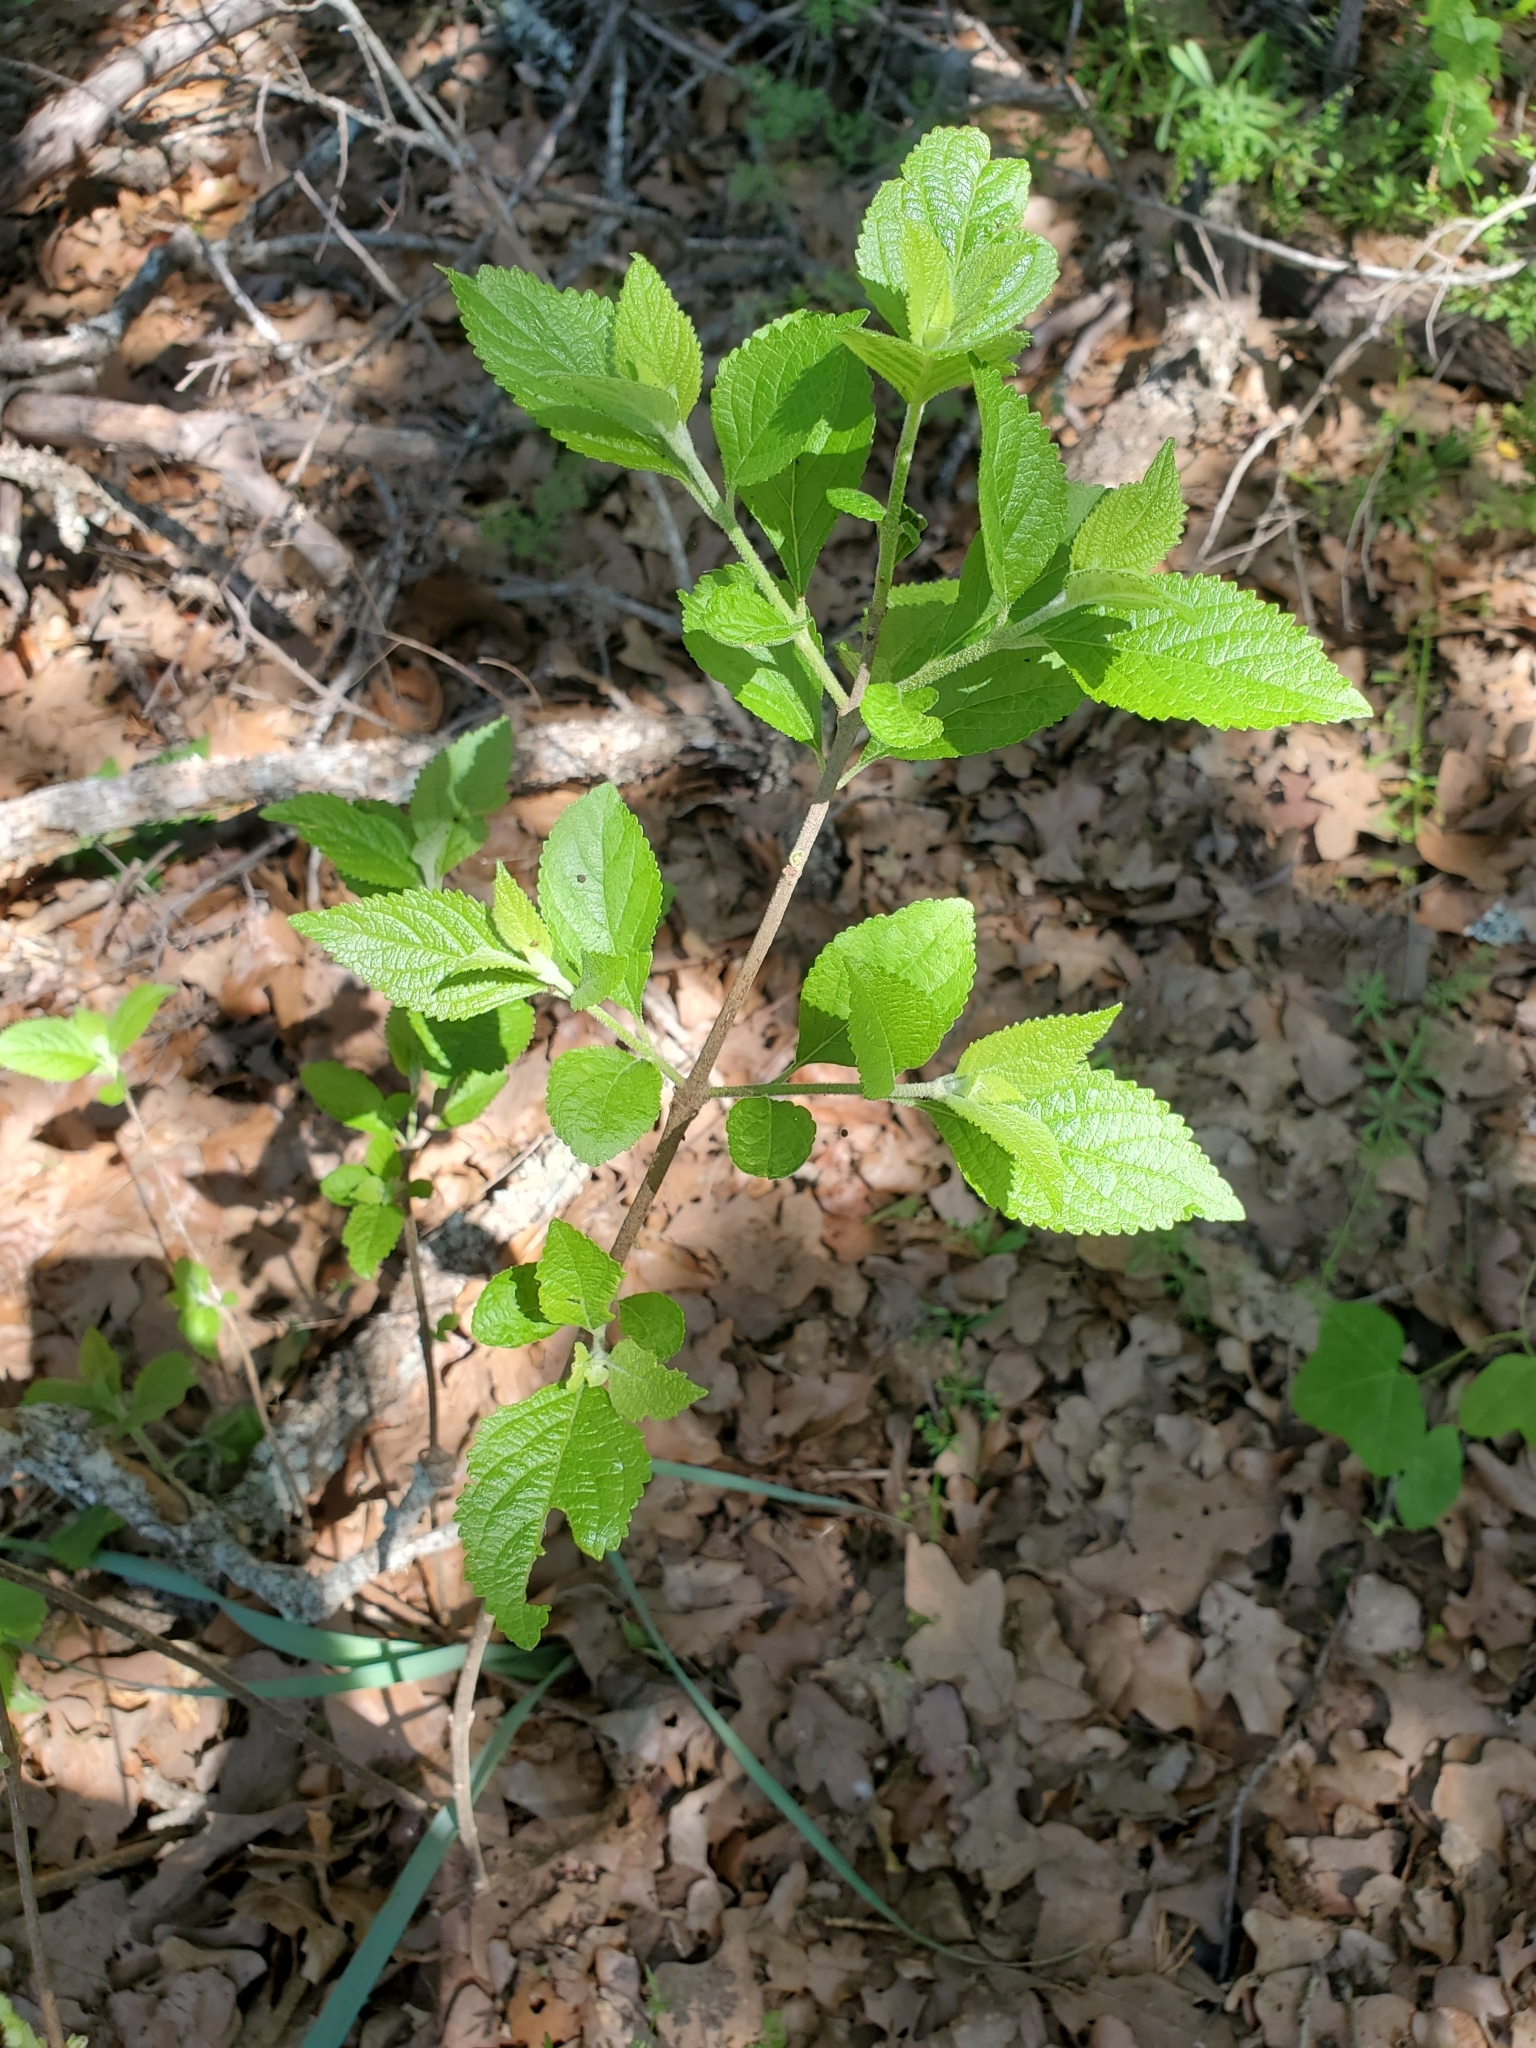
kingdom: Plantae
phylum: Tracheophyta
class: Magnoliopsida
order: Lamiales
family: Lamiaceae
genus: Callicarpa
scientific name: Callicarpa americana
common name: American beautyberry
